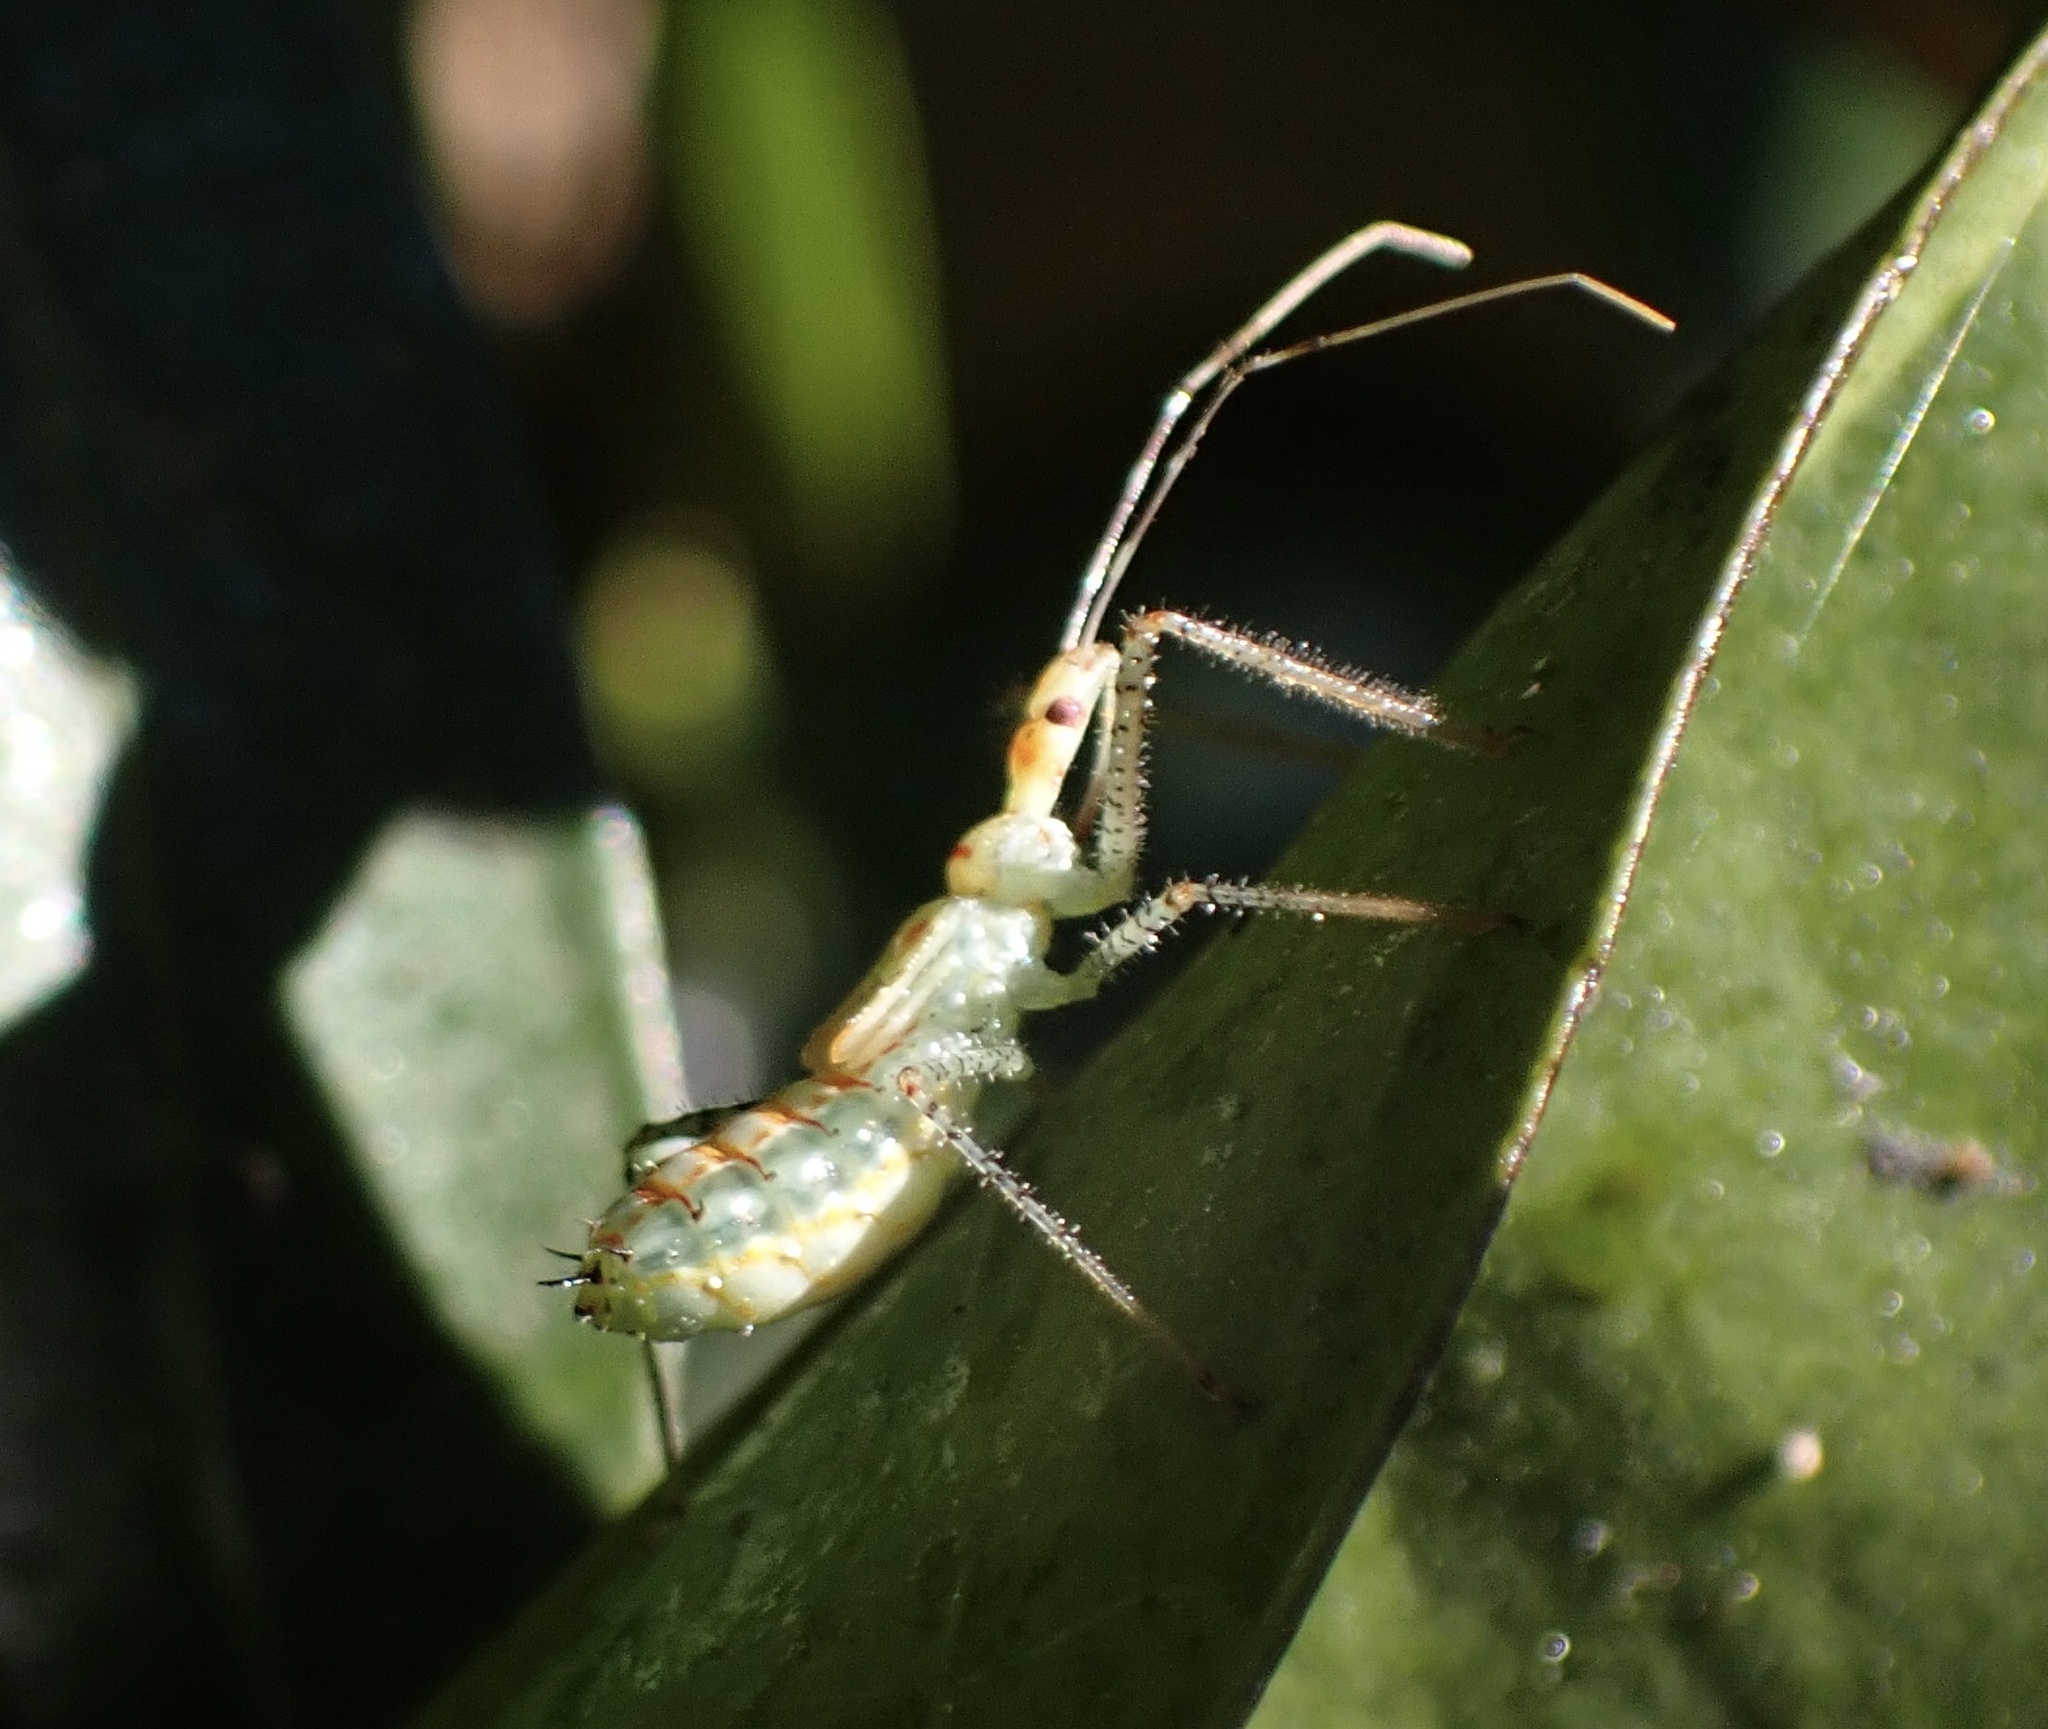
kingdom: Animalia
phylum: Arthropoda
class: Insecta
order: Hemiptera
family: Reduviidae
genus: Zelus
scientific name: Zelus renardii
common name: Assassin bug
